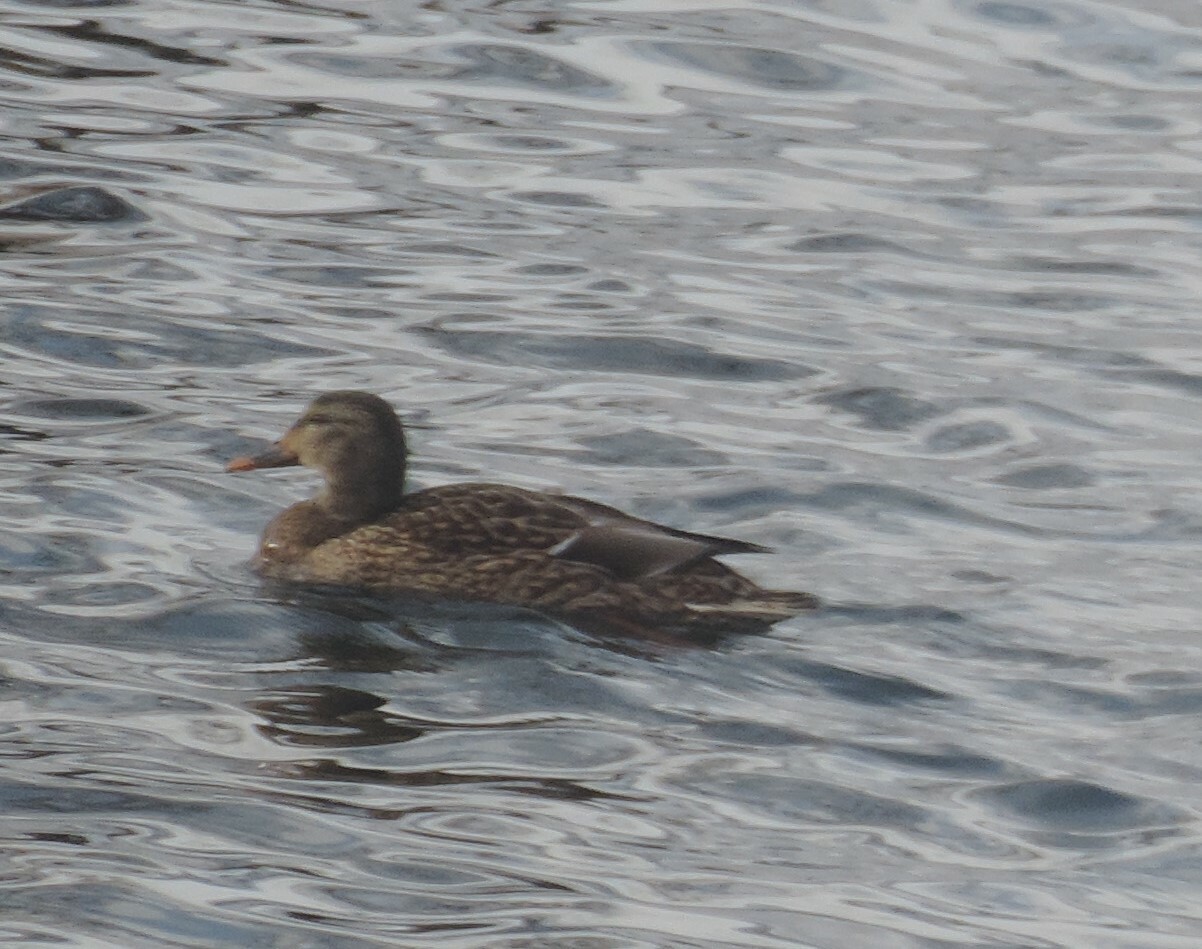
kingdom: Animalia
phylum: Chordata
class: Aves
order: Anseriformes
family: Anatidae
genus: Anas
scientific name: Anas platyrhynchos
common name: Mallard
